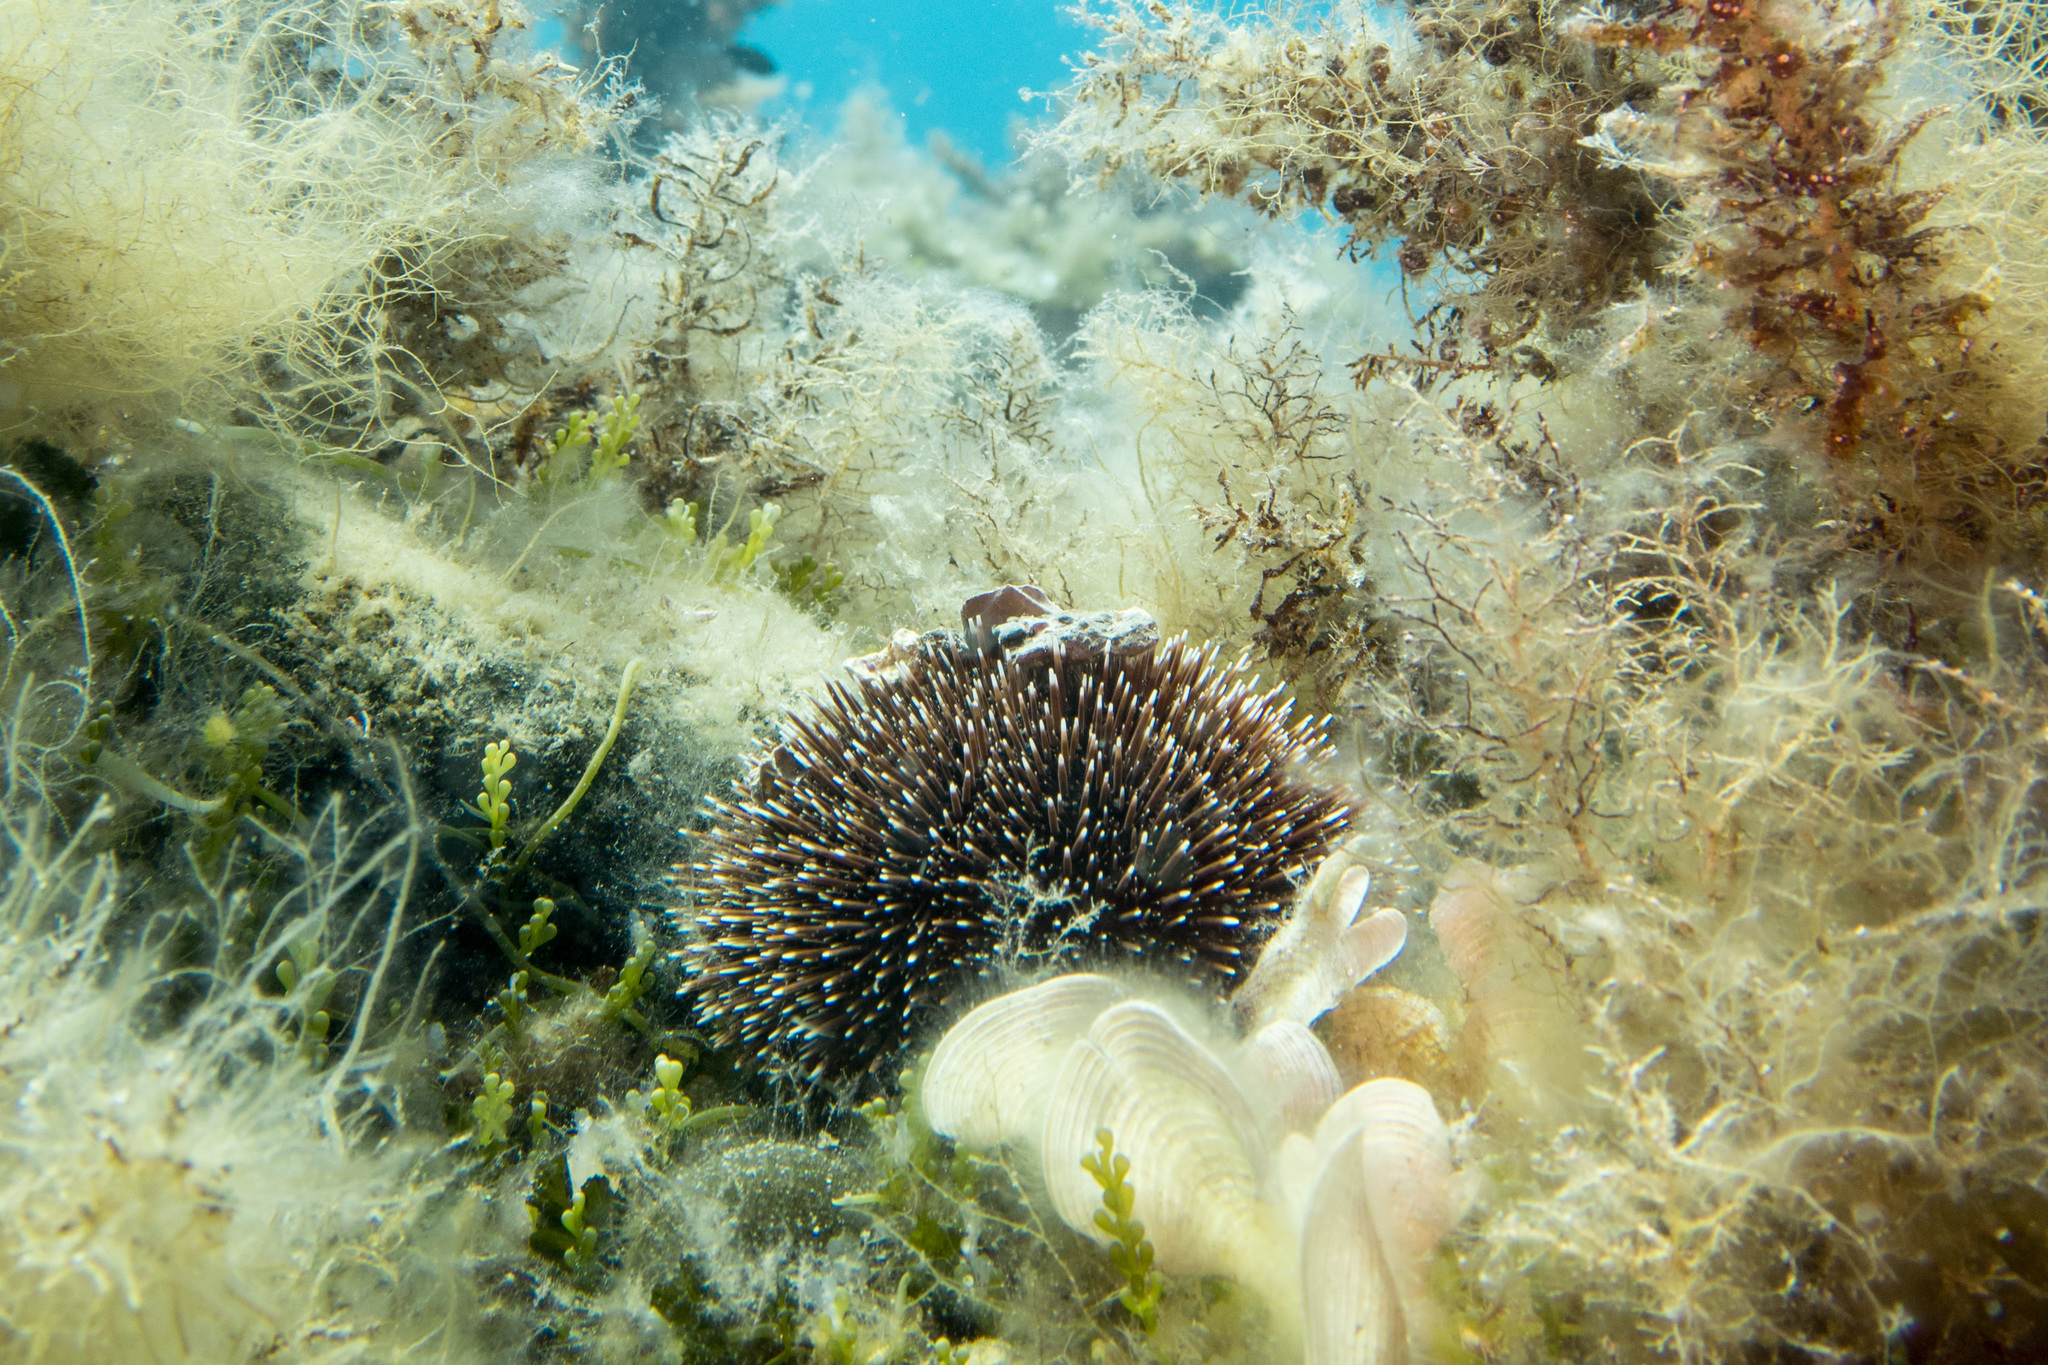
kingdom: Animalia
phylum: Echinodermata
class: Echinoidea
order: Camarodonta
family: Toxopneustidae
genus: Sphaerechinus
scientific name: Sphaerechinus granularis
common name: Violet sea urchin
